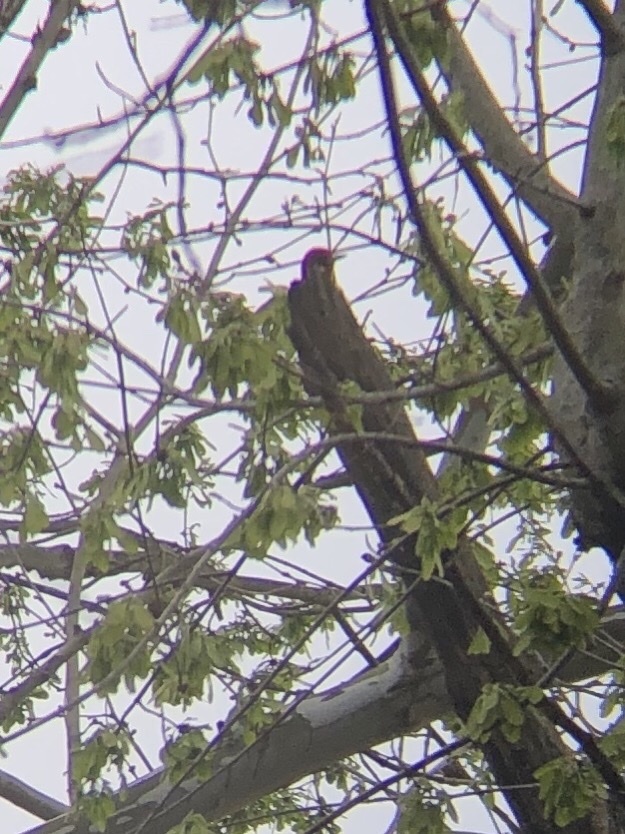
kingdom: Animalia
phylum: Chordata
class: Aves
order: Piciformes
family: Picidae
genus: Melanerpes
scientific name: Melanerpes erythrocephalus
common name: Red-headed woodpecker
